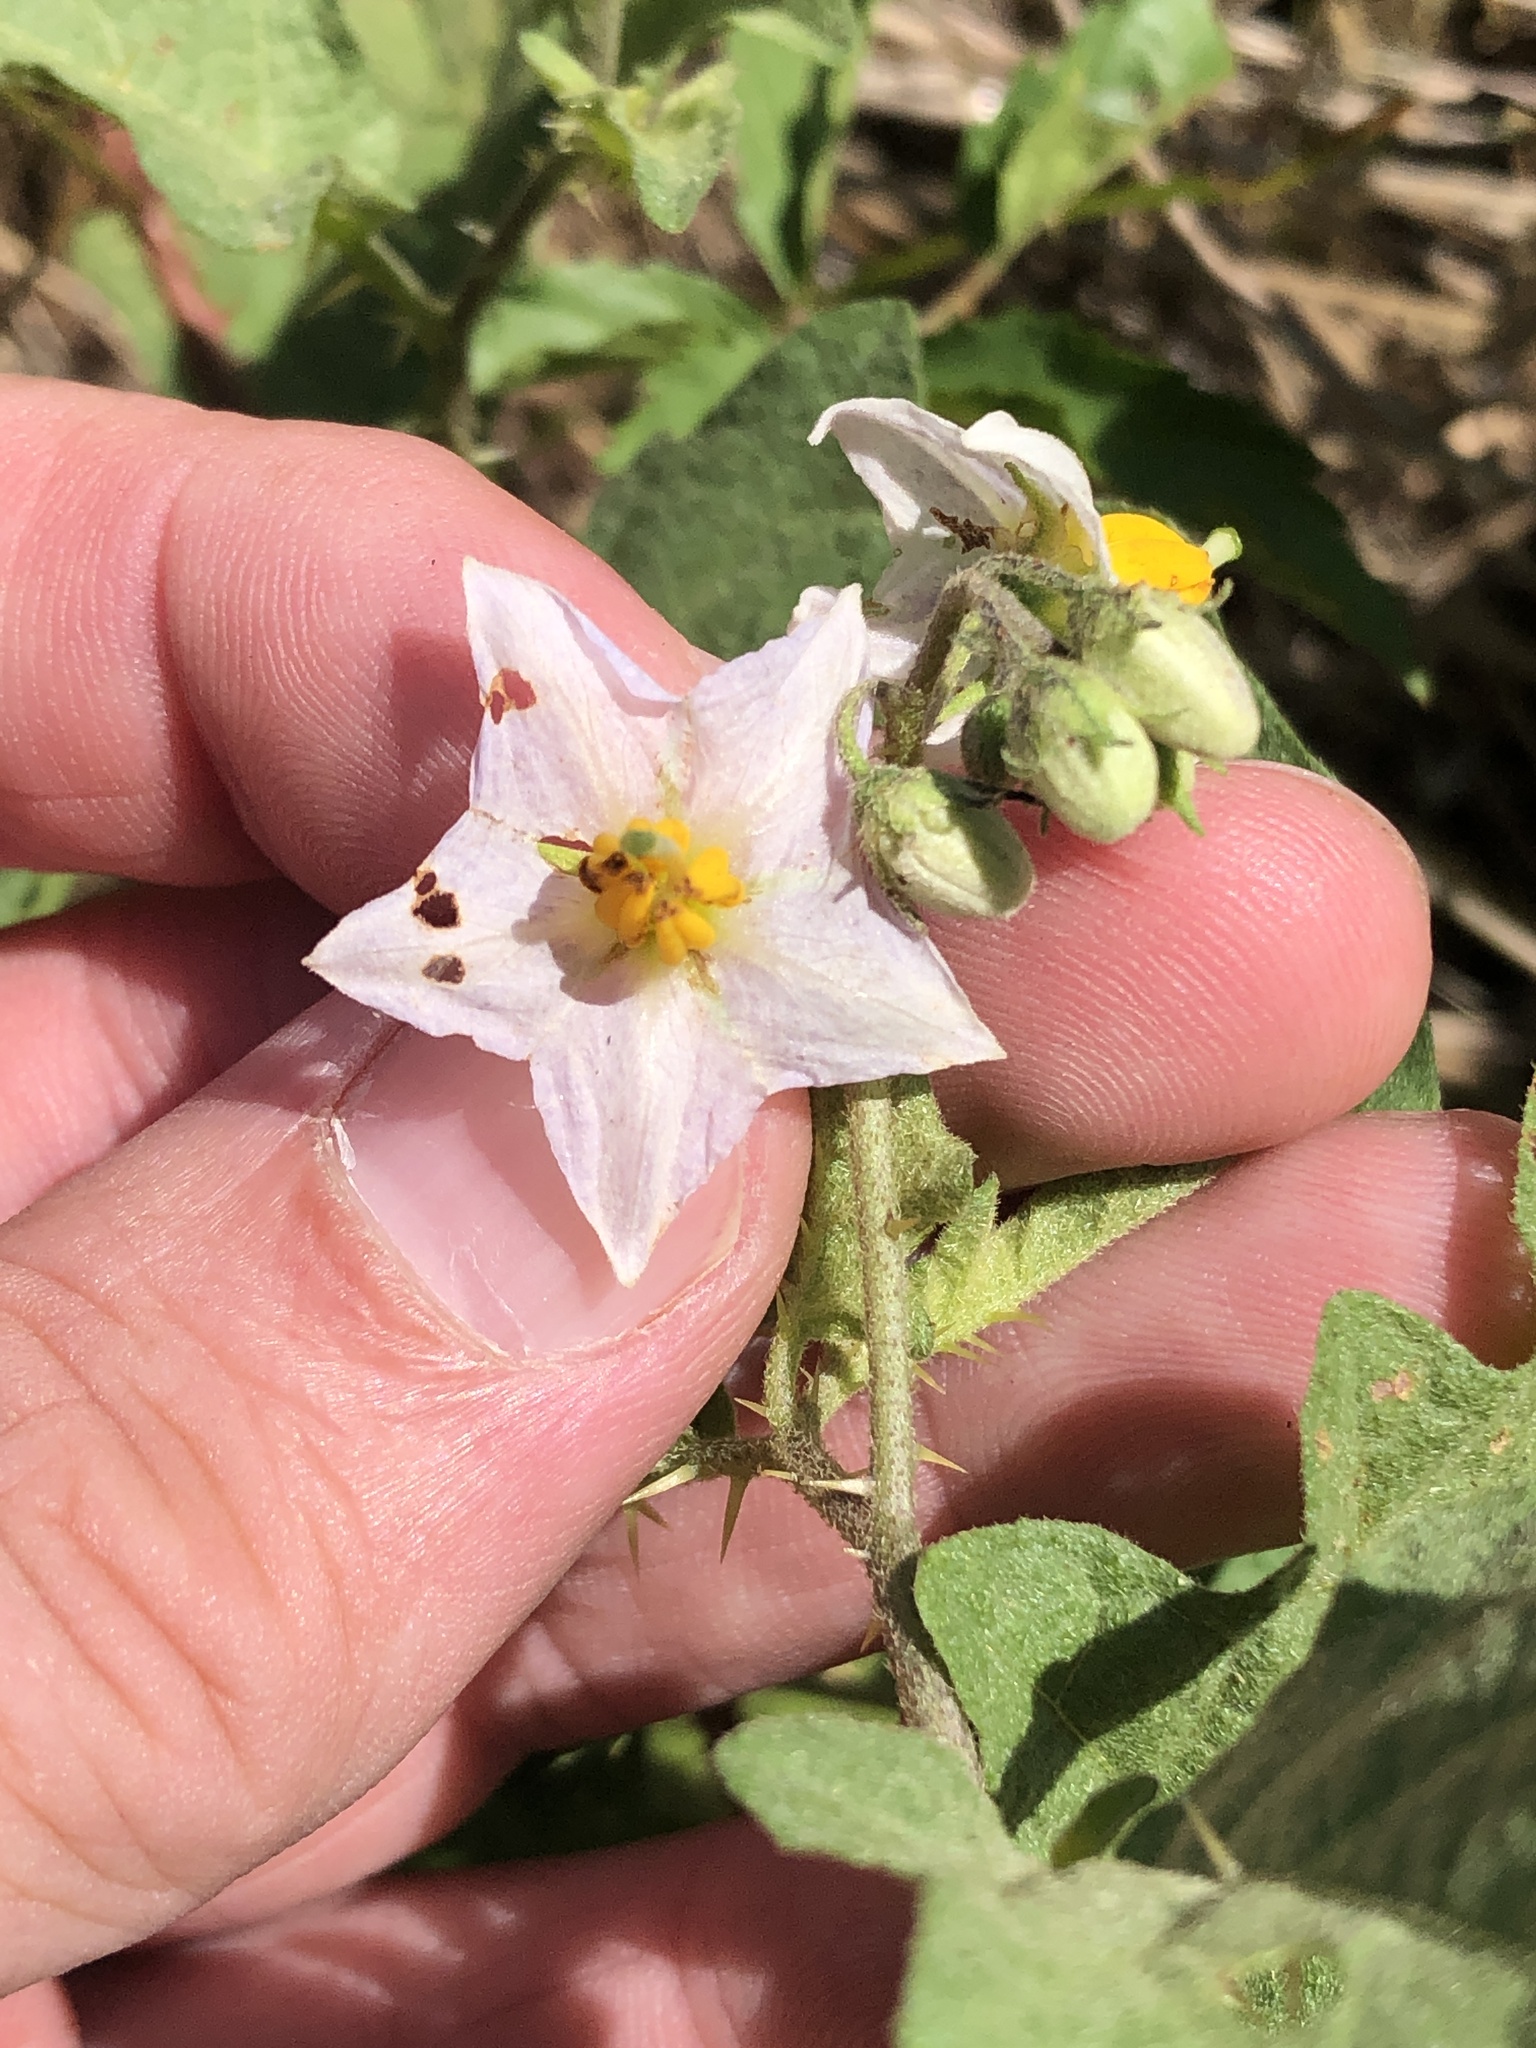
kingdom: Plantae
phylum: Tracheophyta
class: Magnoliopsida
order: Solanales
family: Solanaceae
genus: Solanum
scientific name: Solanum carolinense
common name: Horse-nettle
